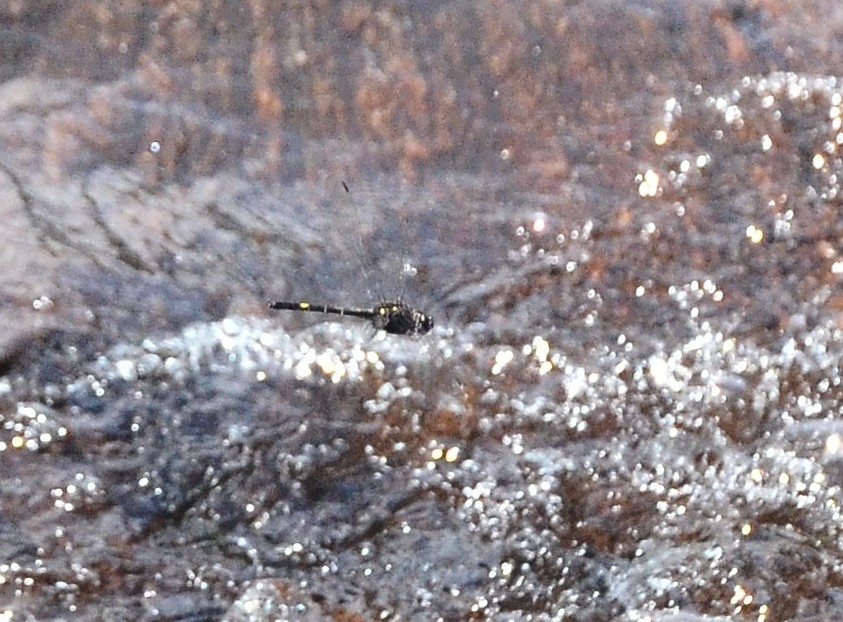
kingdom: Animalia
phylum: Arthropoda
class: Insecta
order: Odonata
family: Libellulidae
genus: Zygonyx
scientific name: Zygonyx iris
